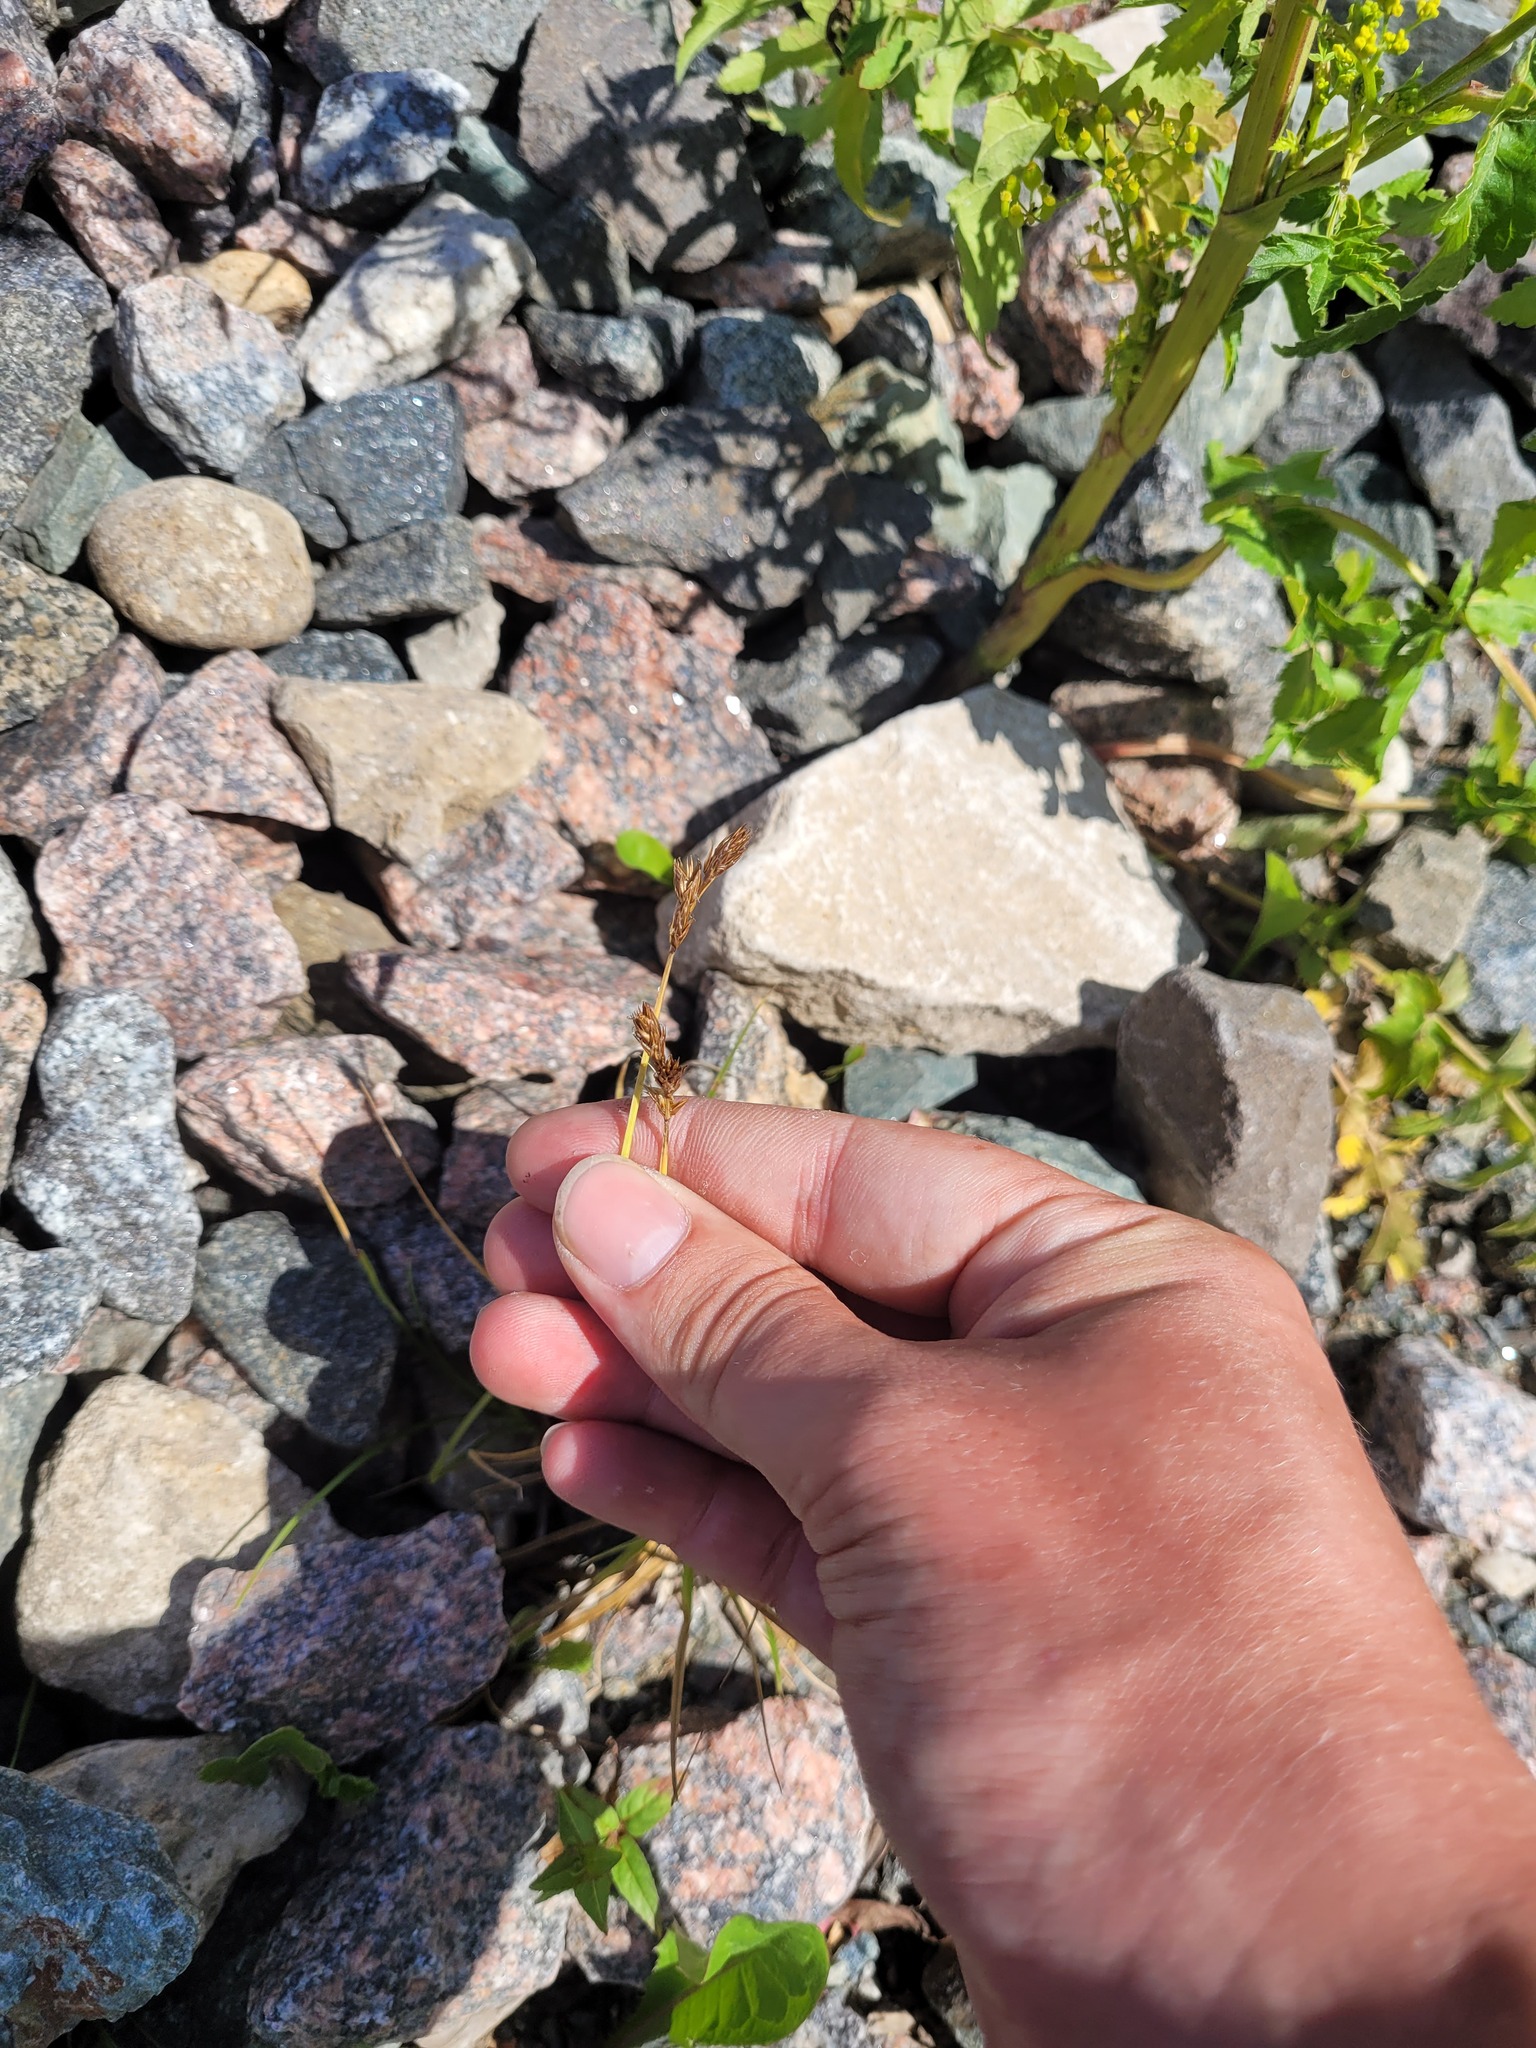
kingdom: Plantae
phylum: Tracheophyta
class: Liliopsida
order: Poales
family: Cyperaceae
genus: Carex
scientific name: Carex leporina
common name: Oval sedge
